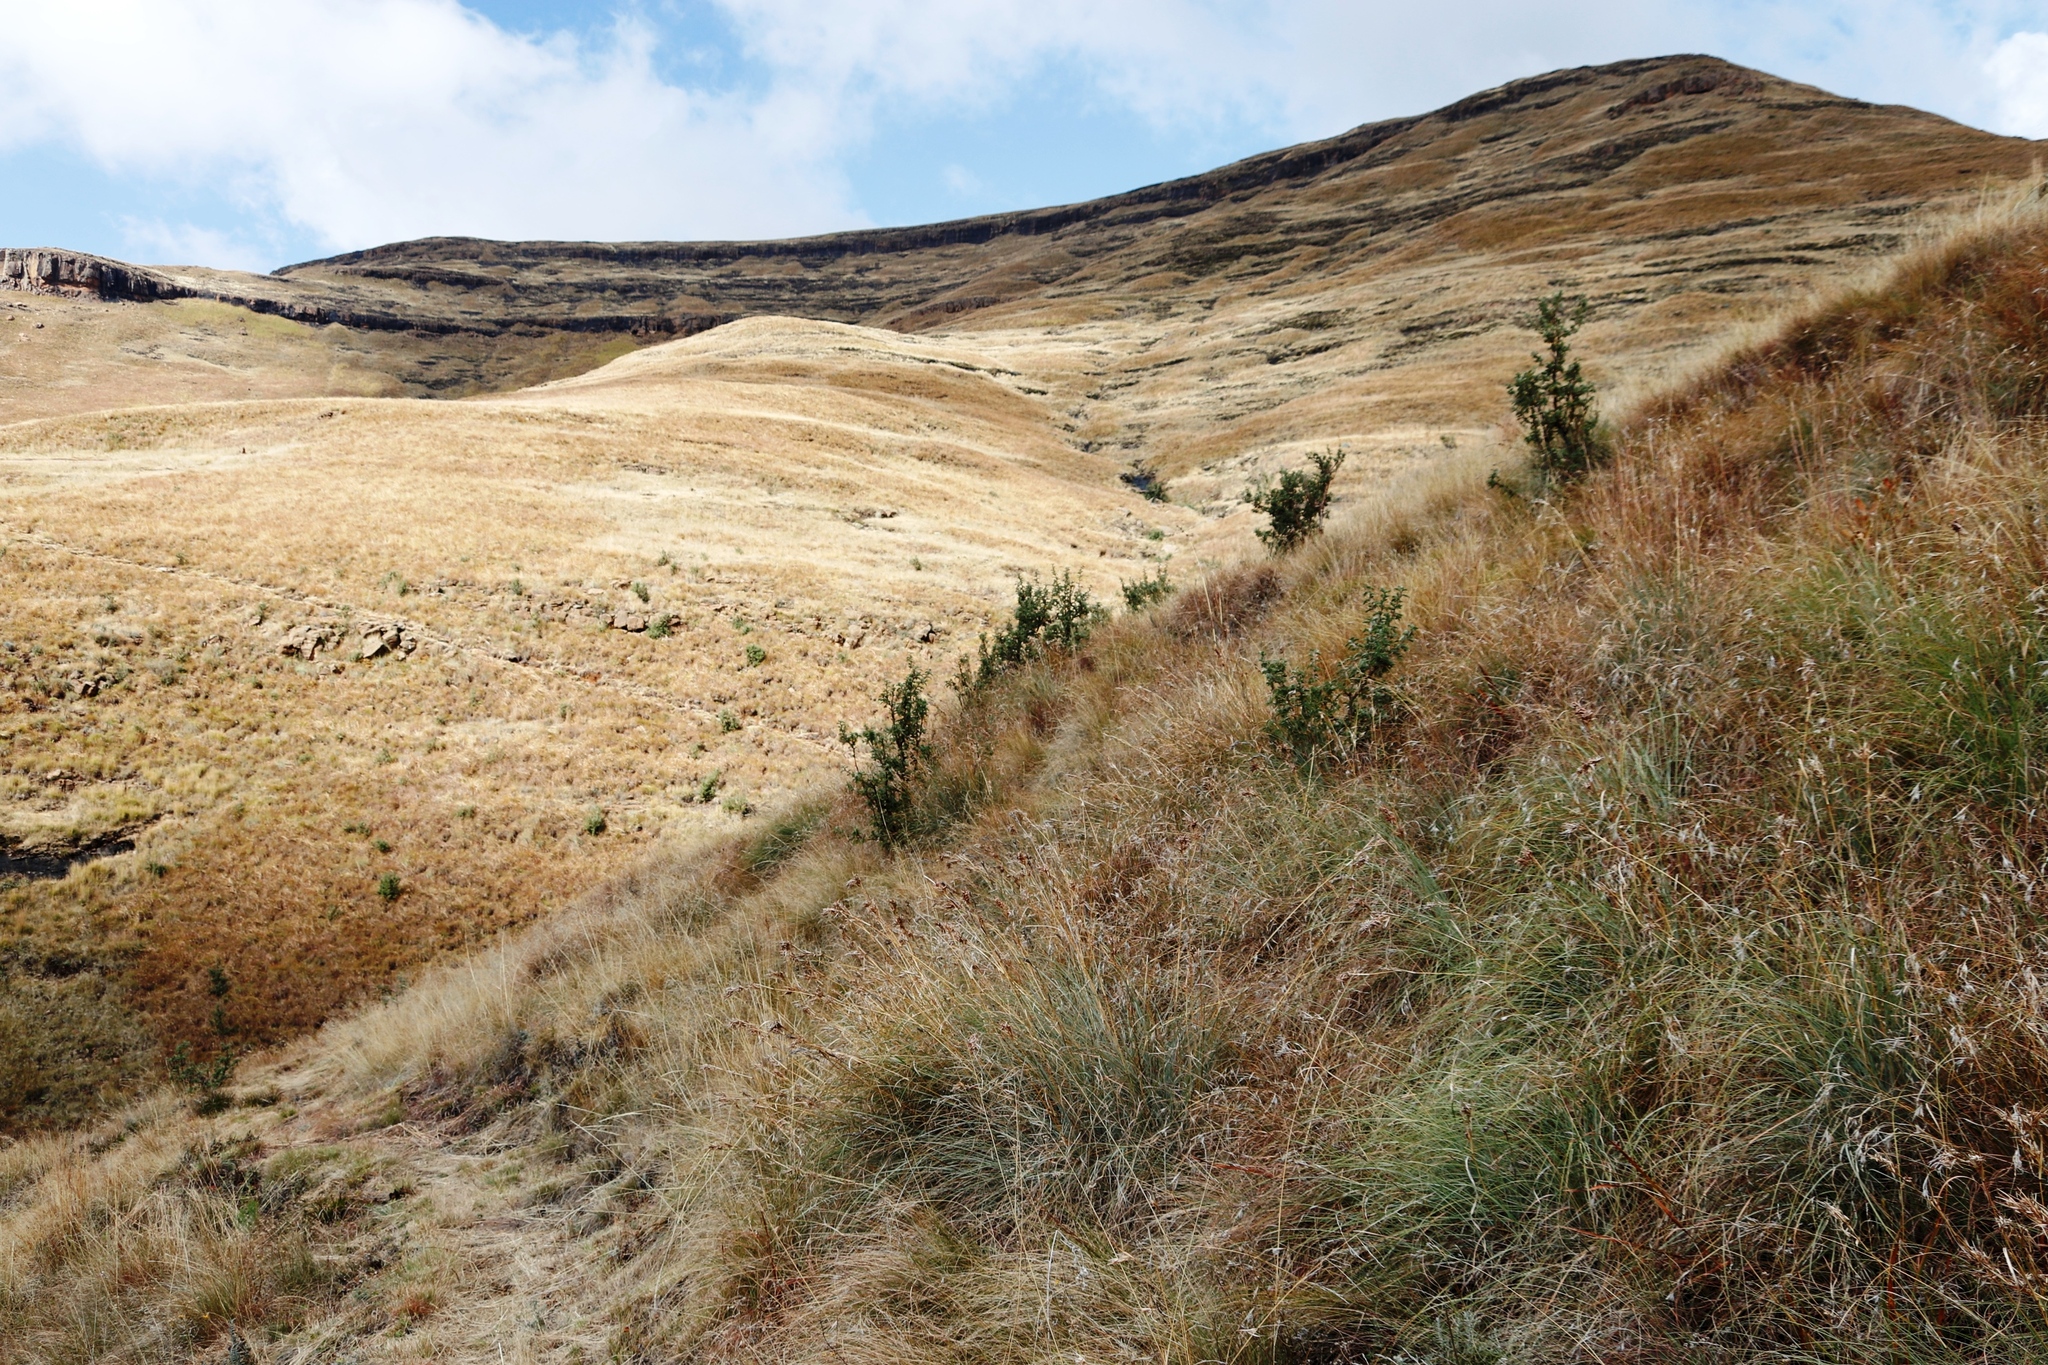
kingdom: Plantae
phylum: Tracheophyta
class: Magnoliopsida
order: Rosales
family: Rosaceae
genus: Leucosidea
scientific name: Leucosidea sericea
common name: Oldwood
